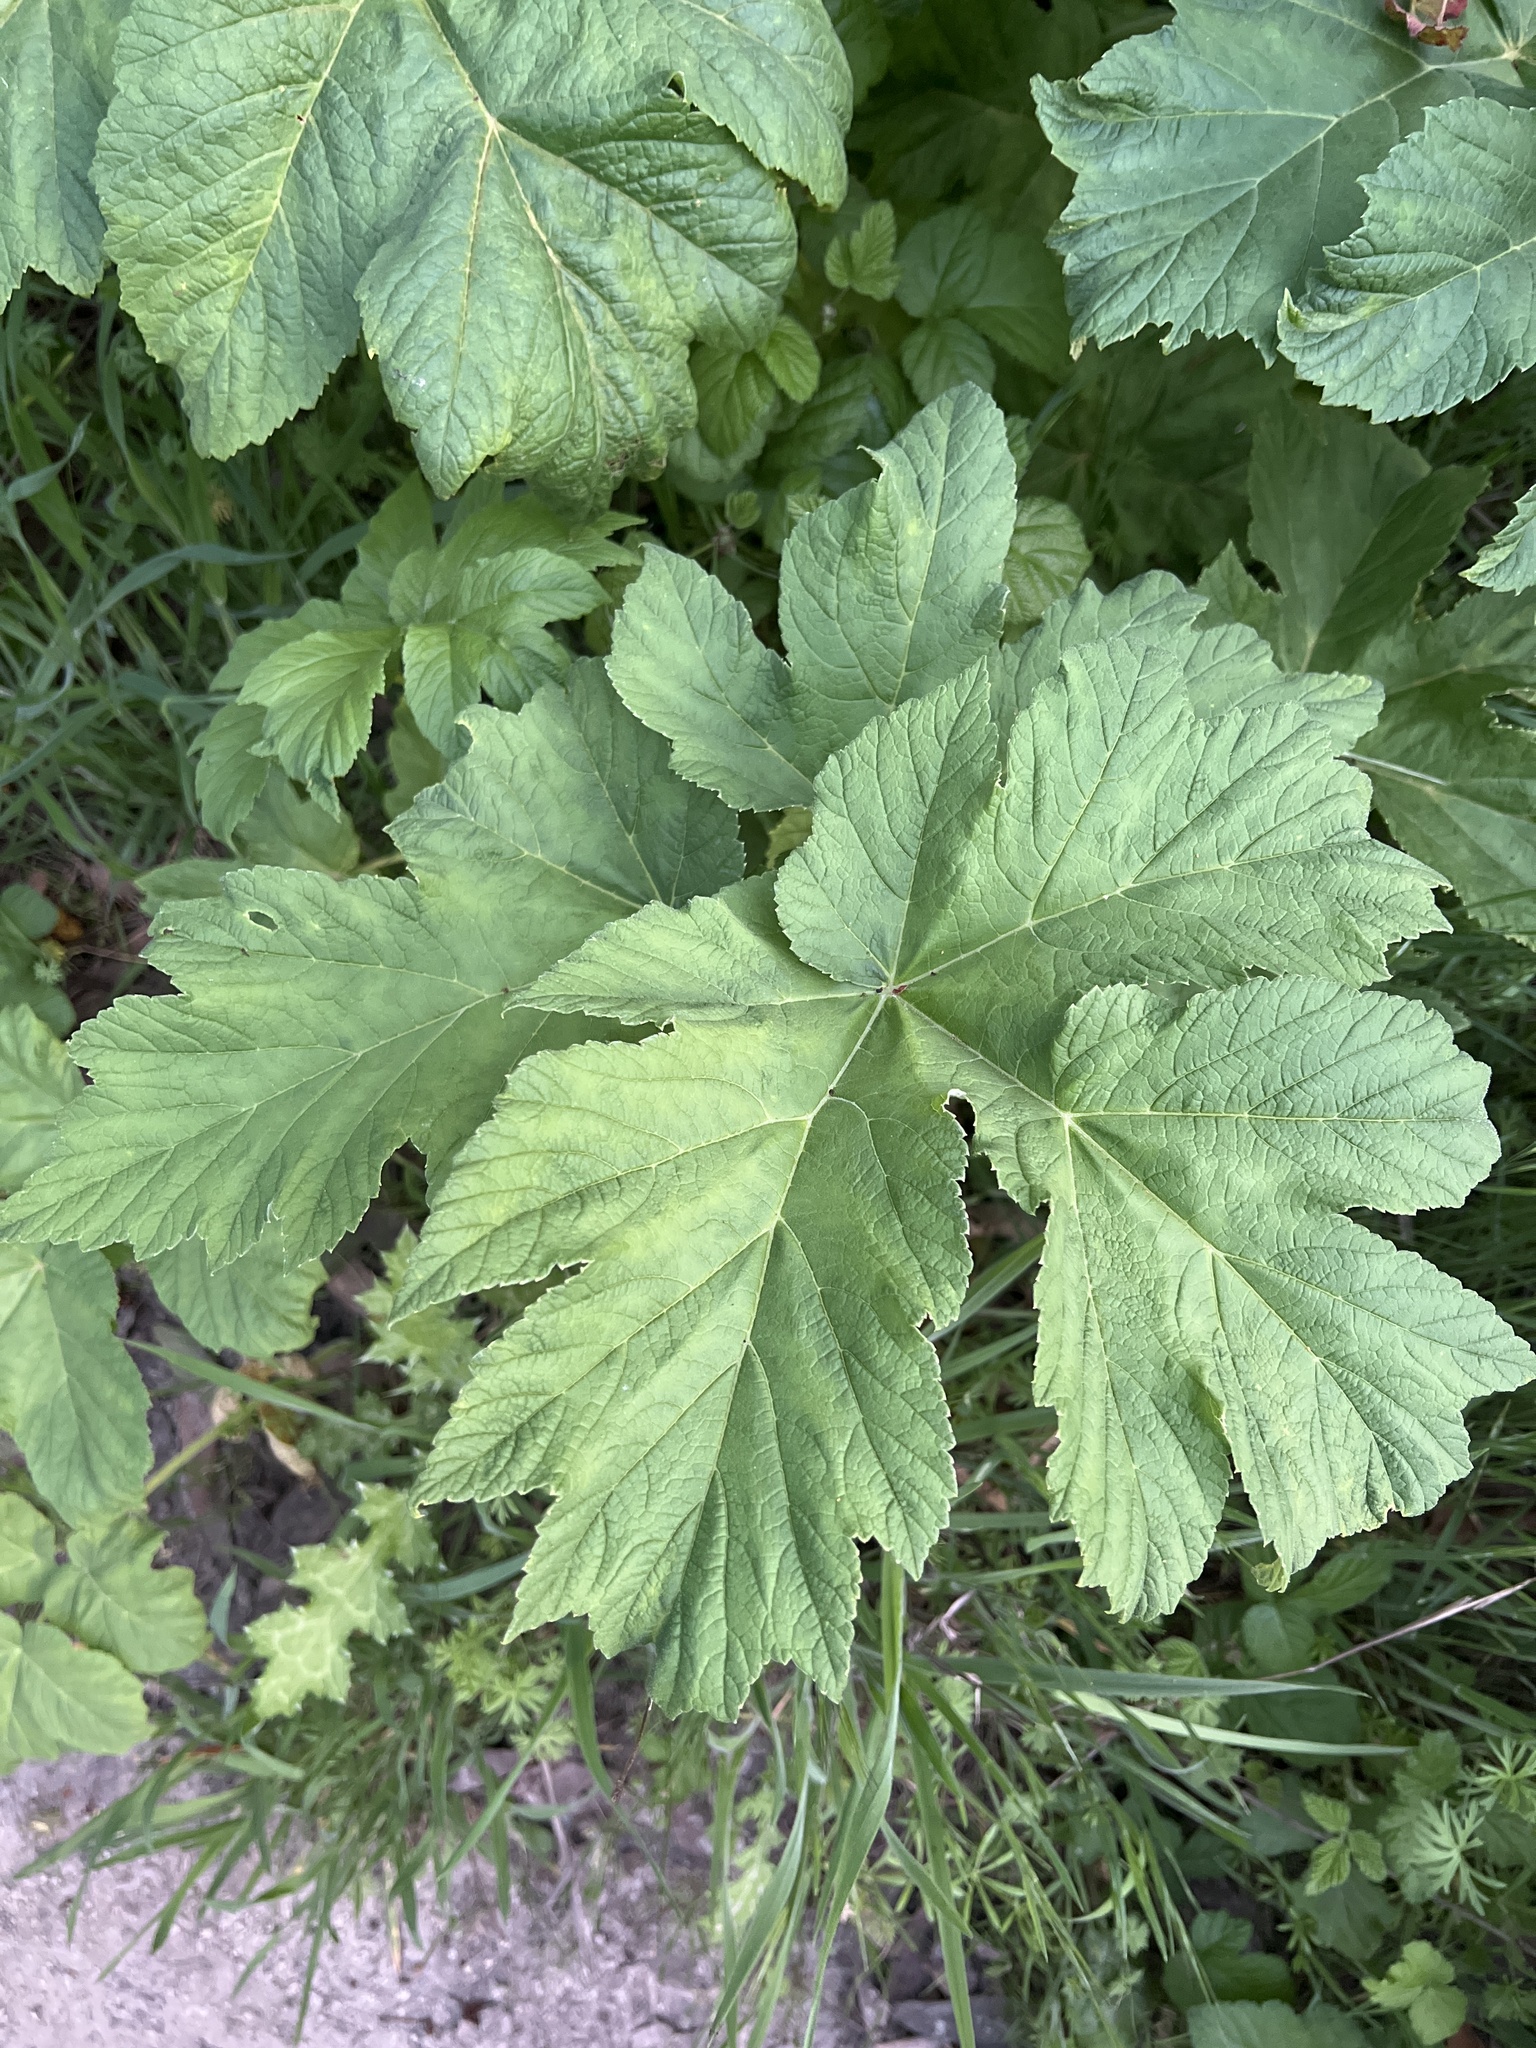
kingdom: Plantae
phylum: Tracheophyta
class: Magnoliopsida
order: Apiales
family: Apiaceae
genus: Heracleum
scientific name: Heracleum maximum
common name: American cow parsnip
